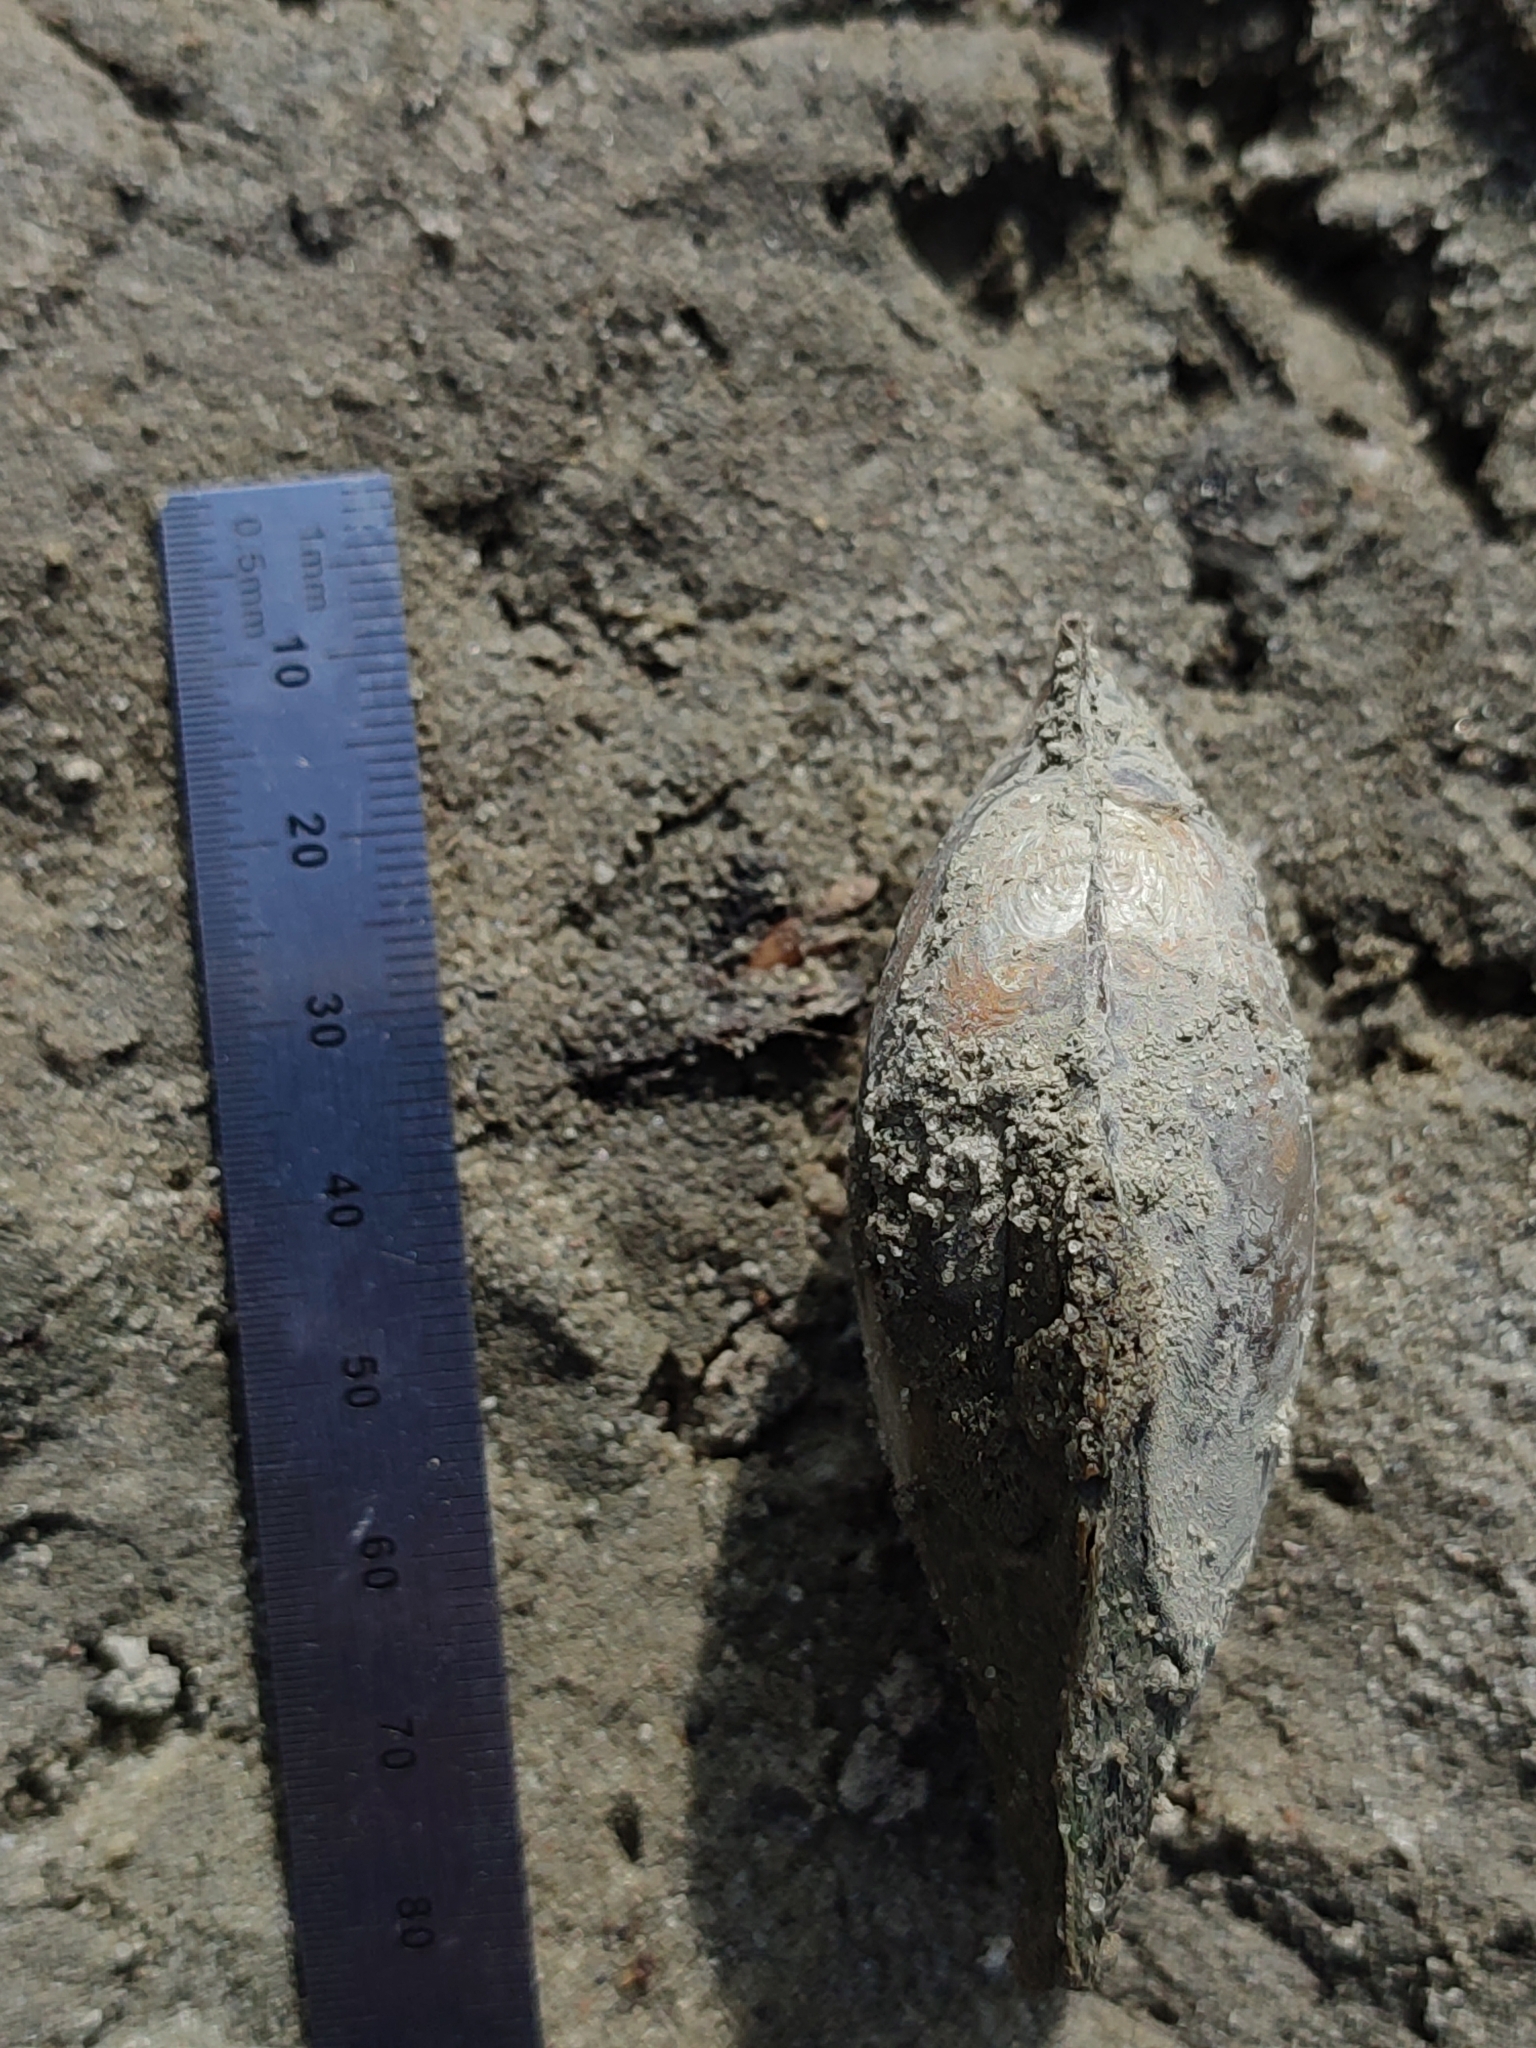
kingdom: Animalia
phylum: Mollusca
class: Bivalvia
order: Unionida
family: Unionidae
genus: Anodonta
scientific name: Anodonta anatina
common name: Duck mussel
